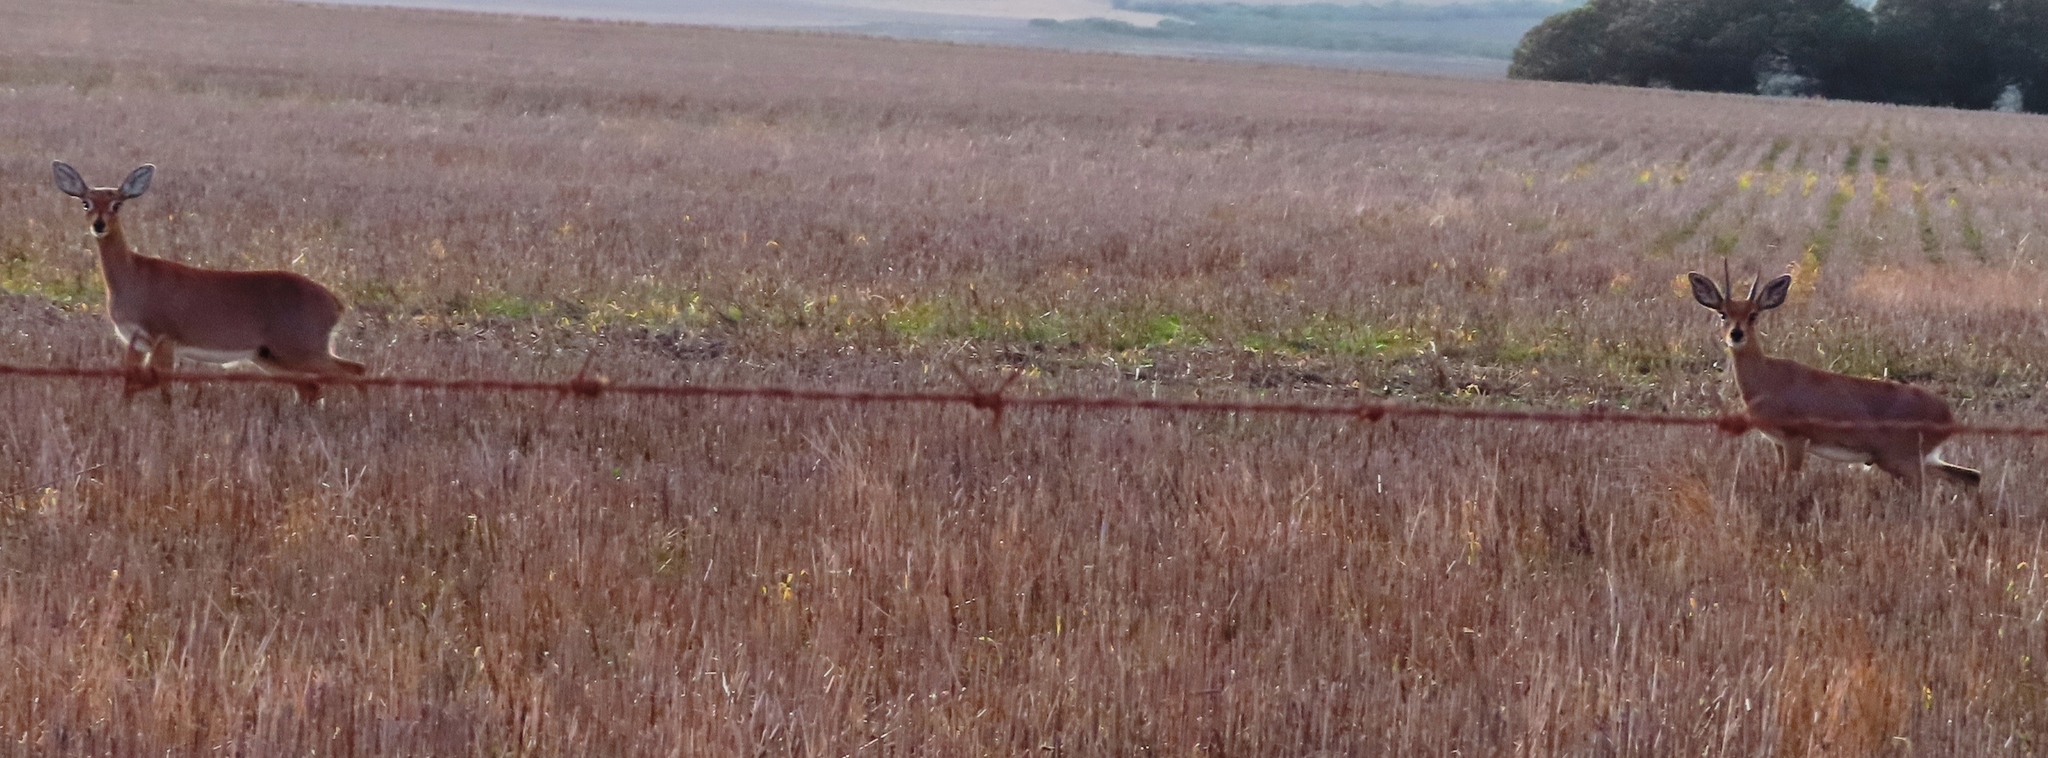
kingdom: Animalia
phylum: Chordata
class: Mammalia
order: Artiodactyla
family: Bovidae
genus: Raphicerus
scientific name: Raphicerus campestris
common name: Steenbok
